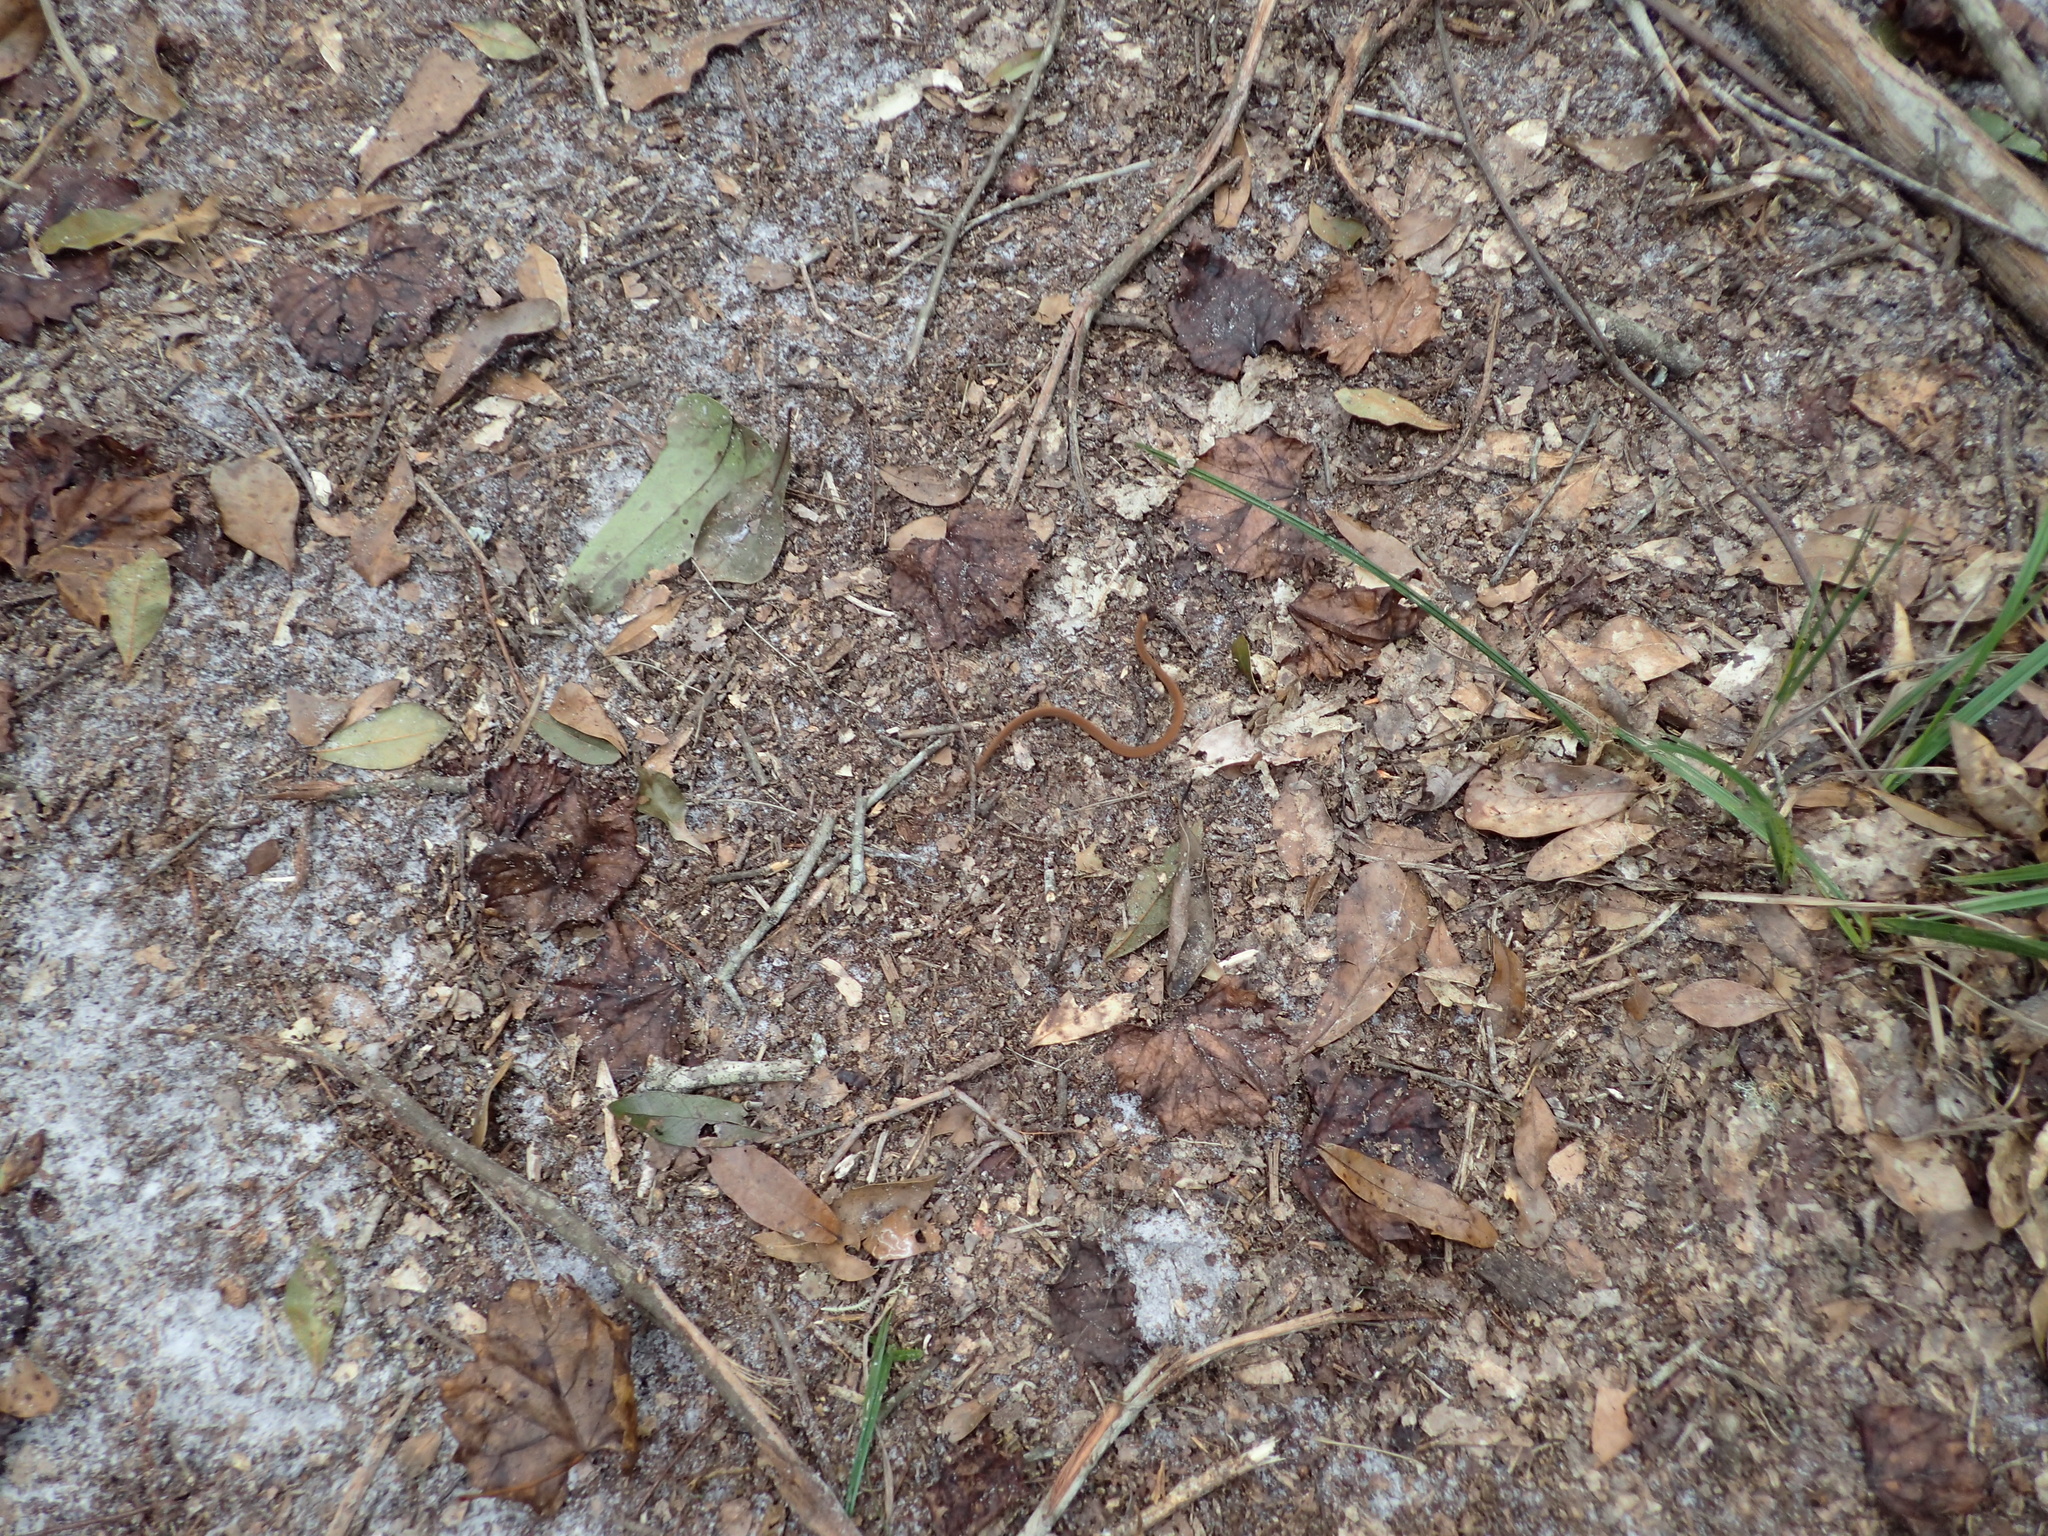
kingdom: Animalia
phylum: Chordata
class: Squamata
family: Colubridae
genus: Storeria
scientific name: Storeria occipitomaculata
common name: Redbelly snake
